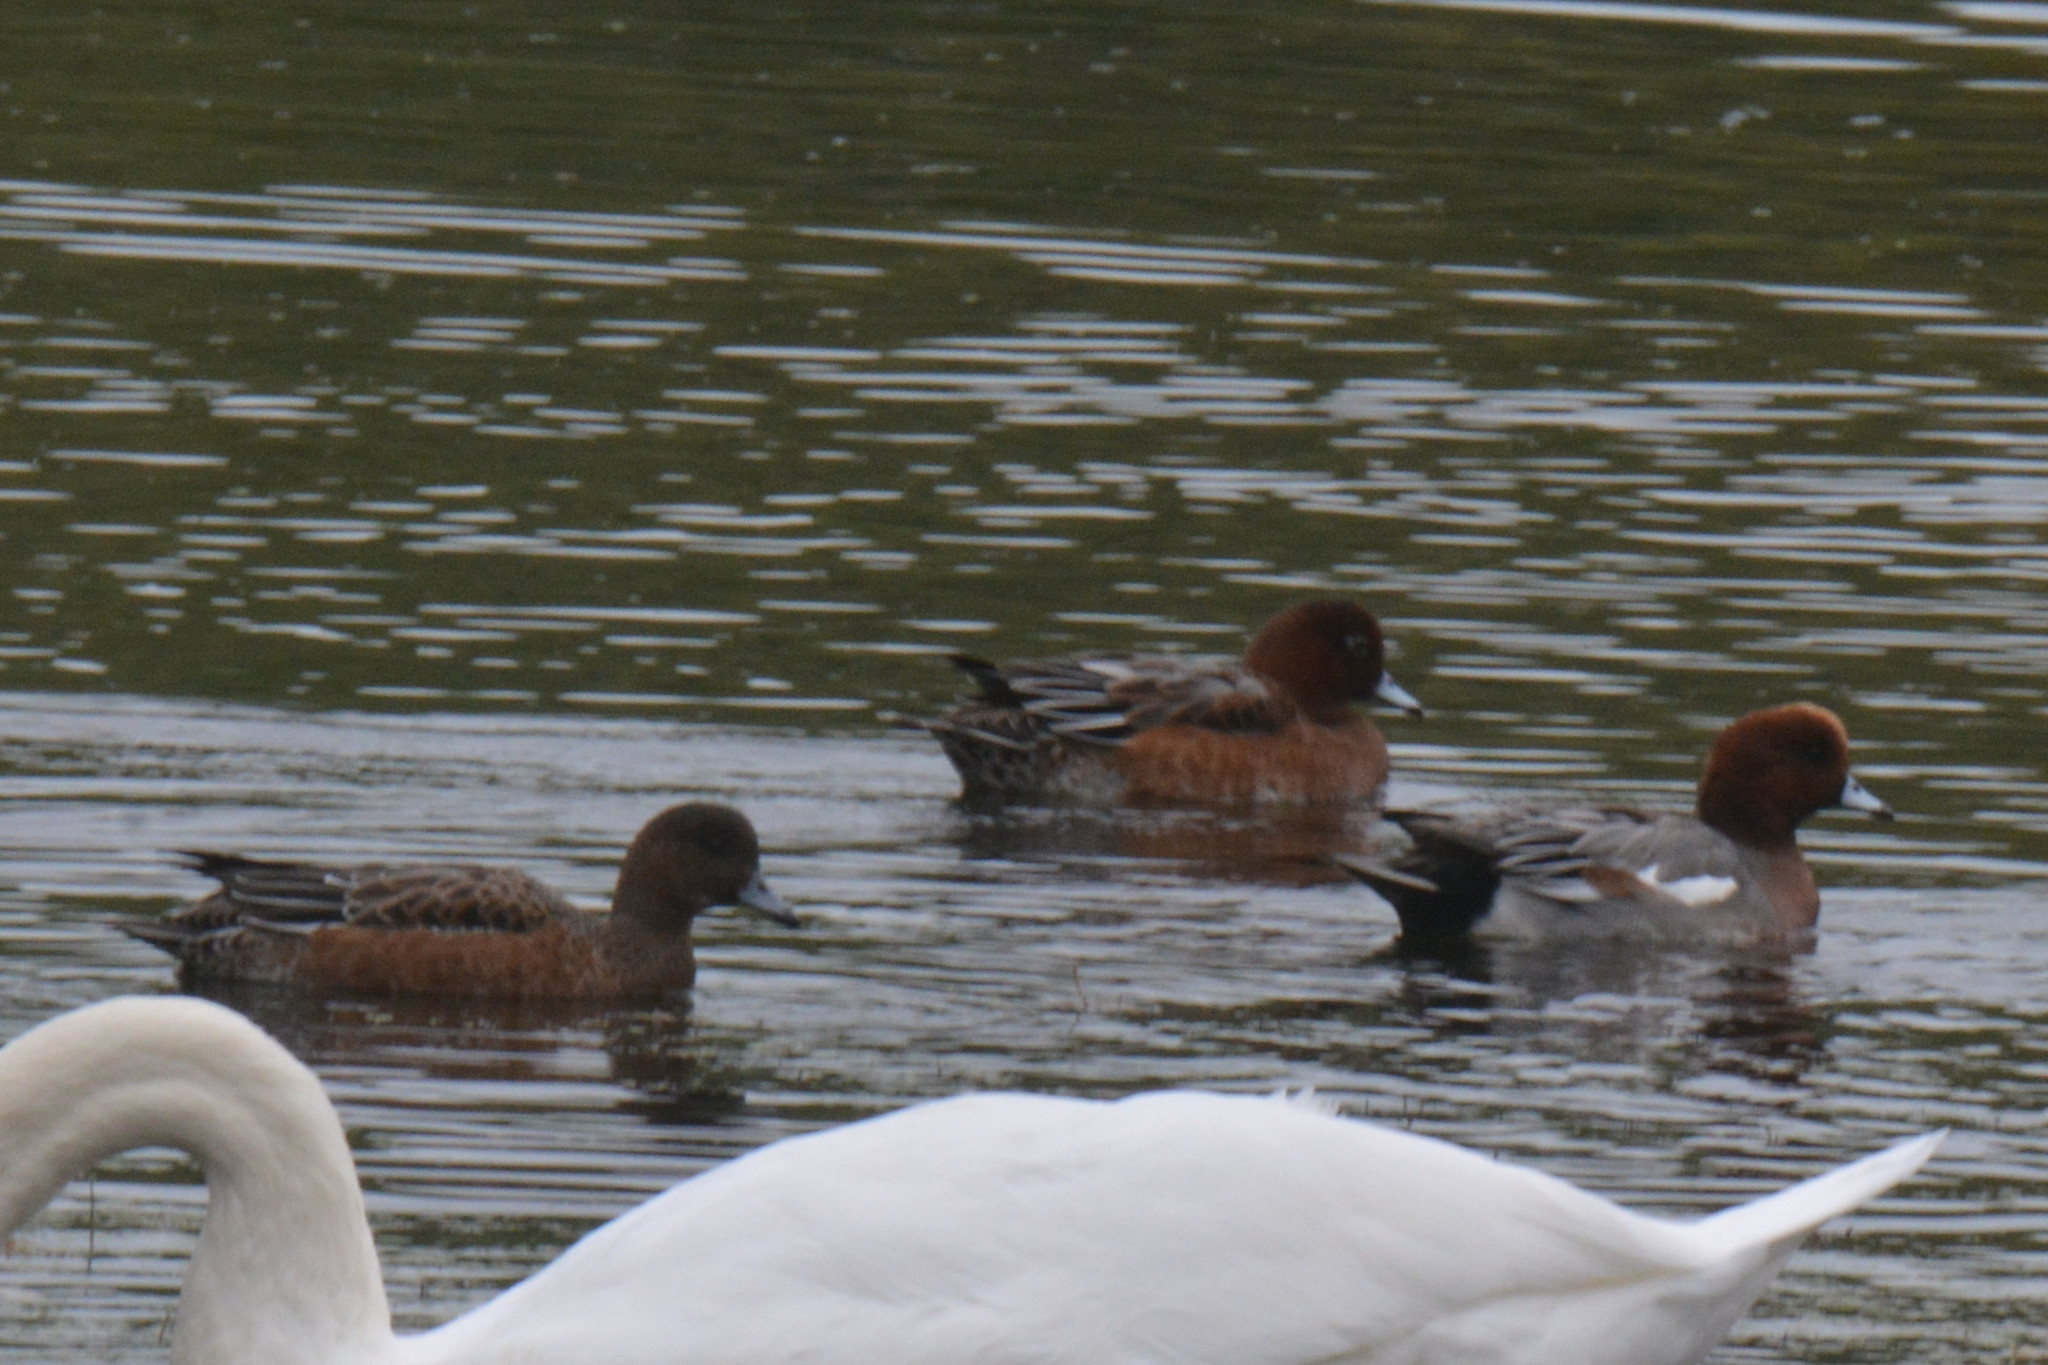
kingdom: Animalia
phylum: Chordata
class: Aves
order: Anseriformes
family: Anatidae
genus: Mareca
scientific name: Mareca penelope
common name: Eurasian wigeon
